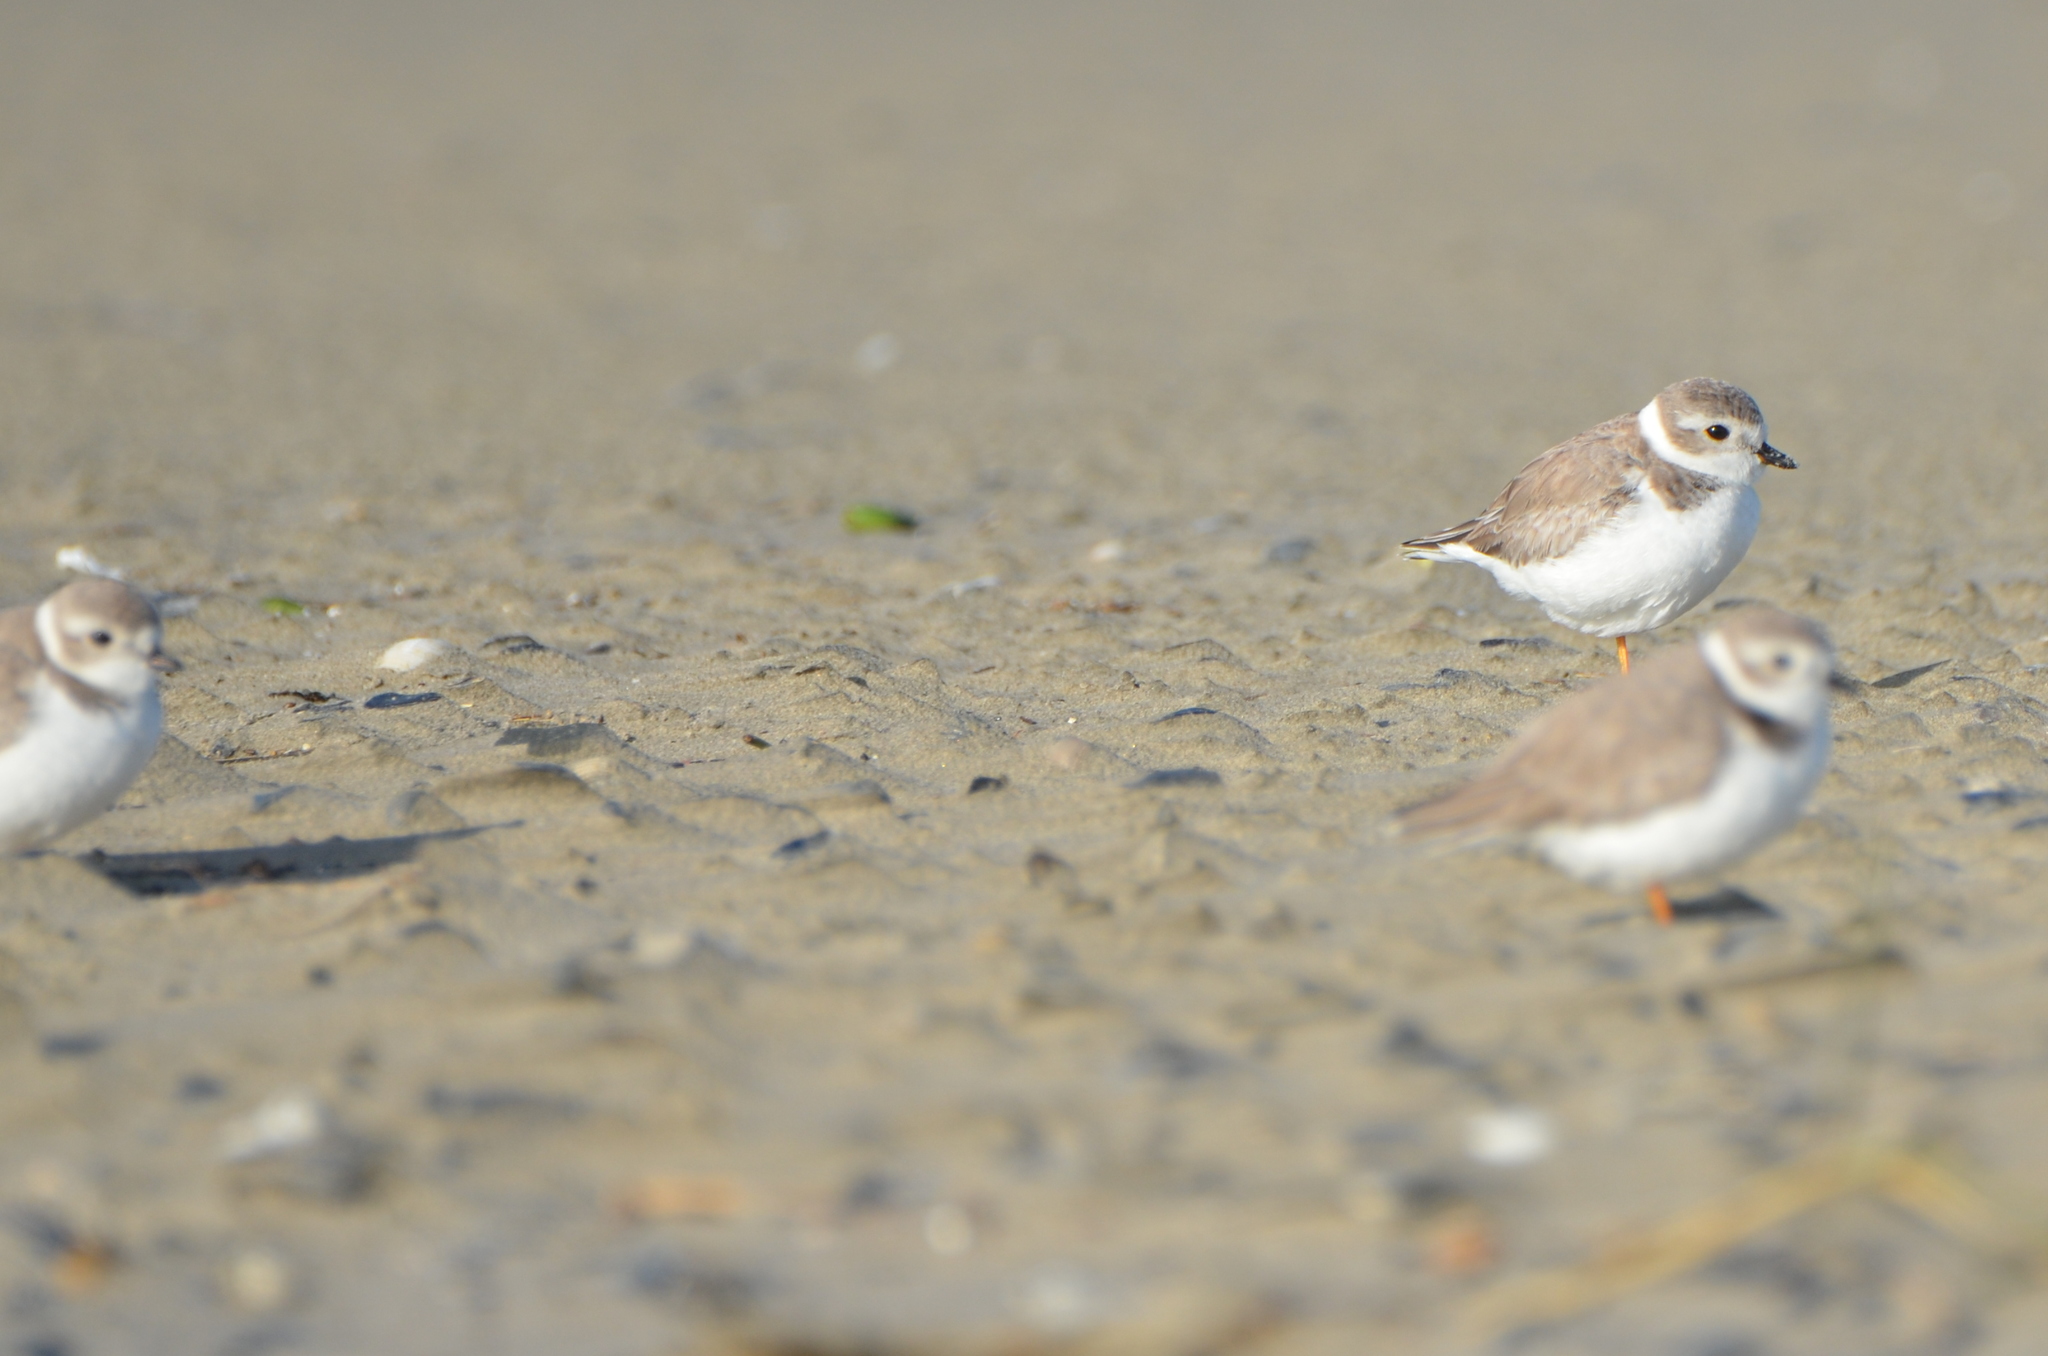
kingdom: Animalia
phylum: Chordata
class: Aves
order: Charadriiformes
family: Charadriidae
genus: Charadrius
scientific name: Charadrius melodus
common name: Piping plover
